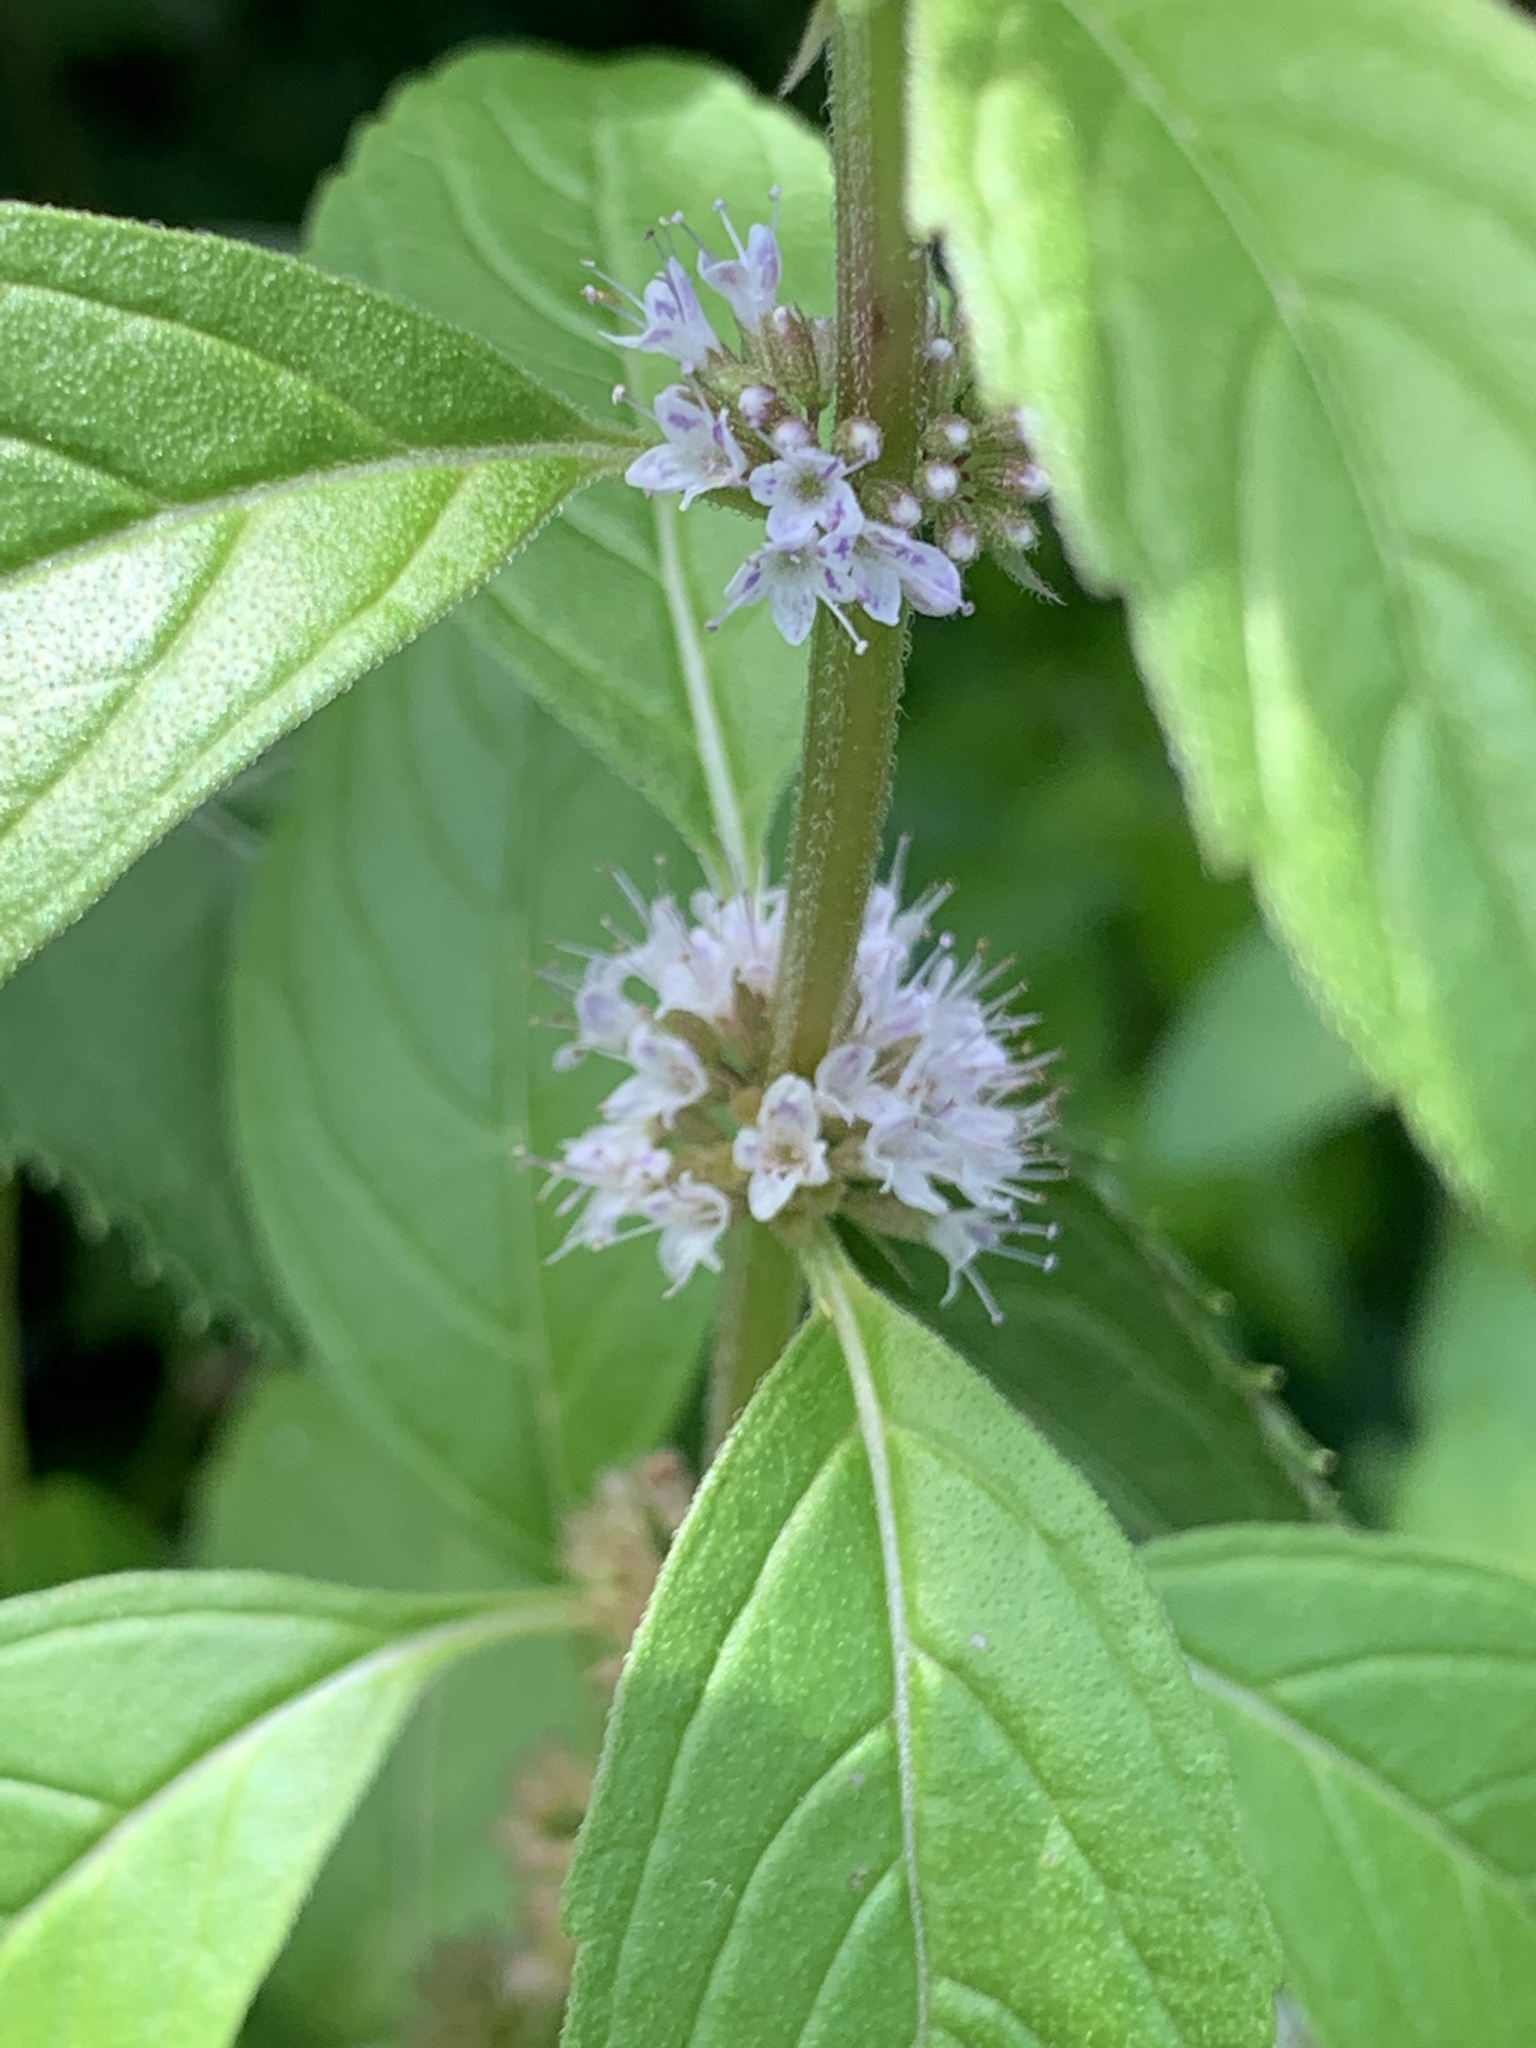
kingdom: Plantae
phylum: Tracheophyta
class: Magnoliopsida
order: Lamiales
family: Lamiaceae
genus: Mentha
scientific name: Mentha arvensis
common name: Corn mint
